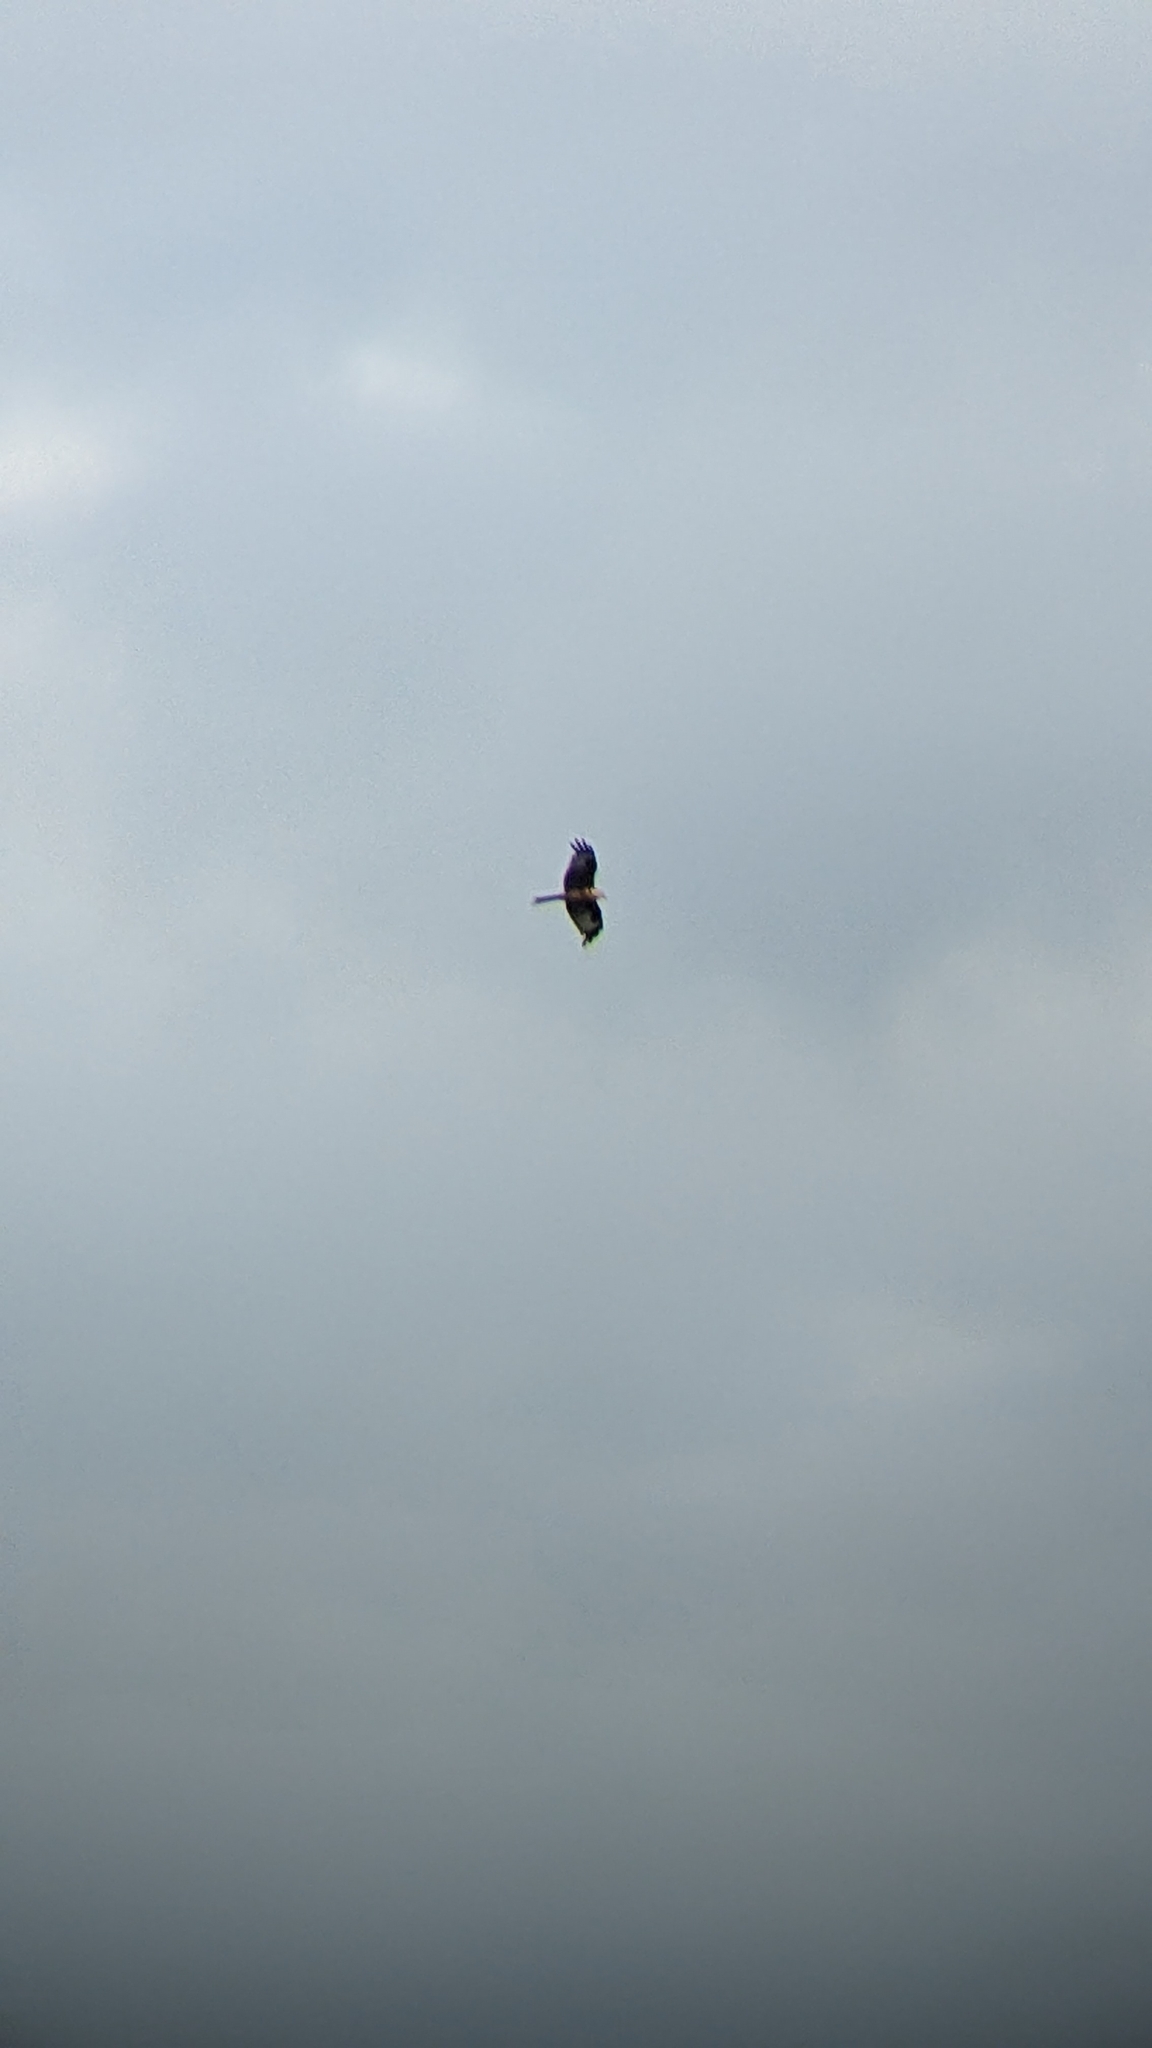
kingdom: Animalia
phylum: Chordata
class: Aves
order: Accipitriformes
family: Accipitridae
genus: Milvus
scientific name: Milvus milvus
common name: Red kite
